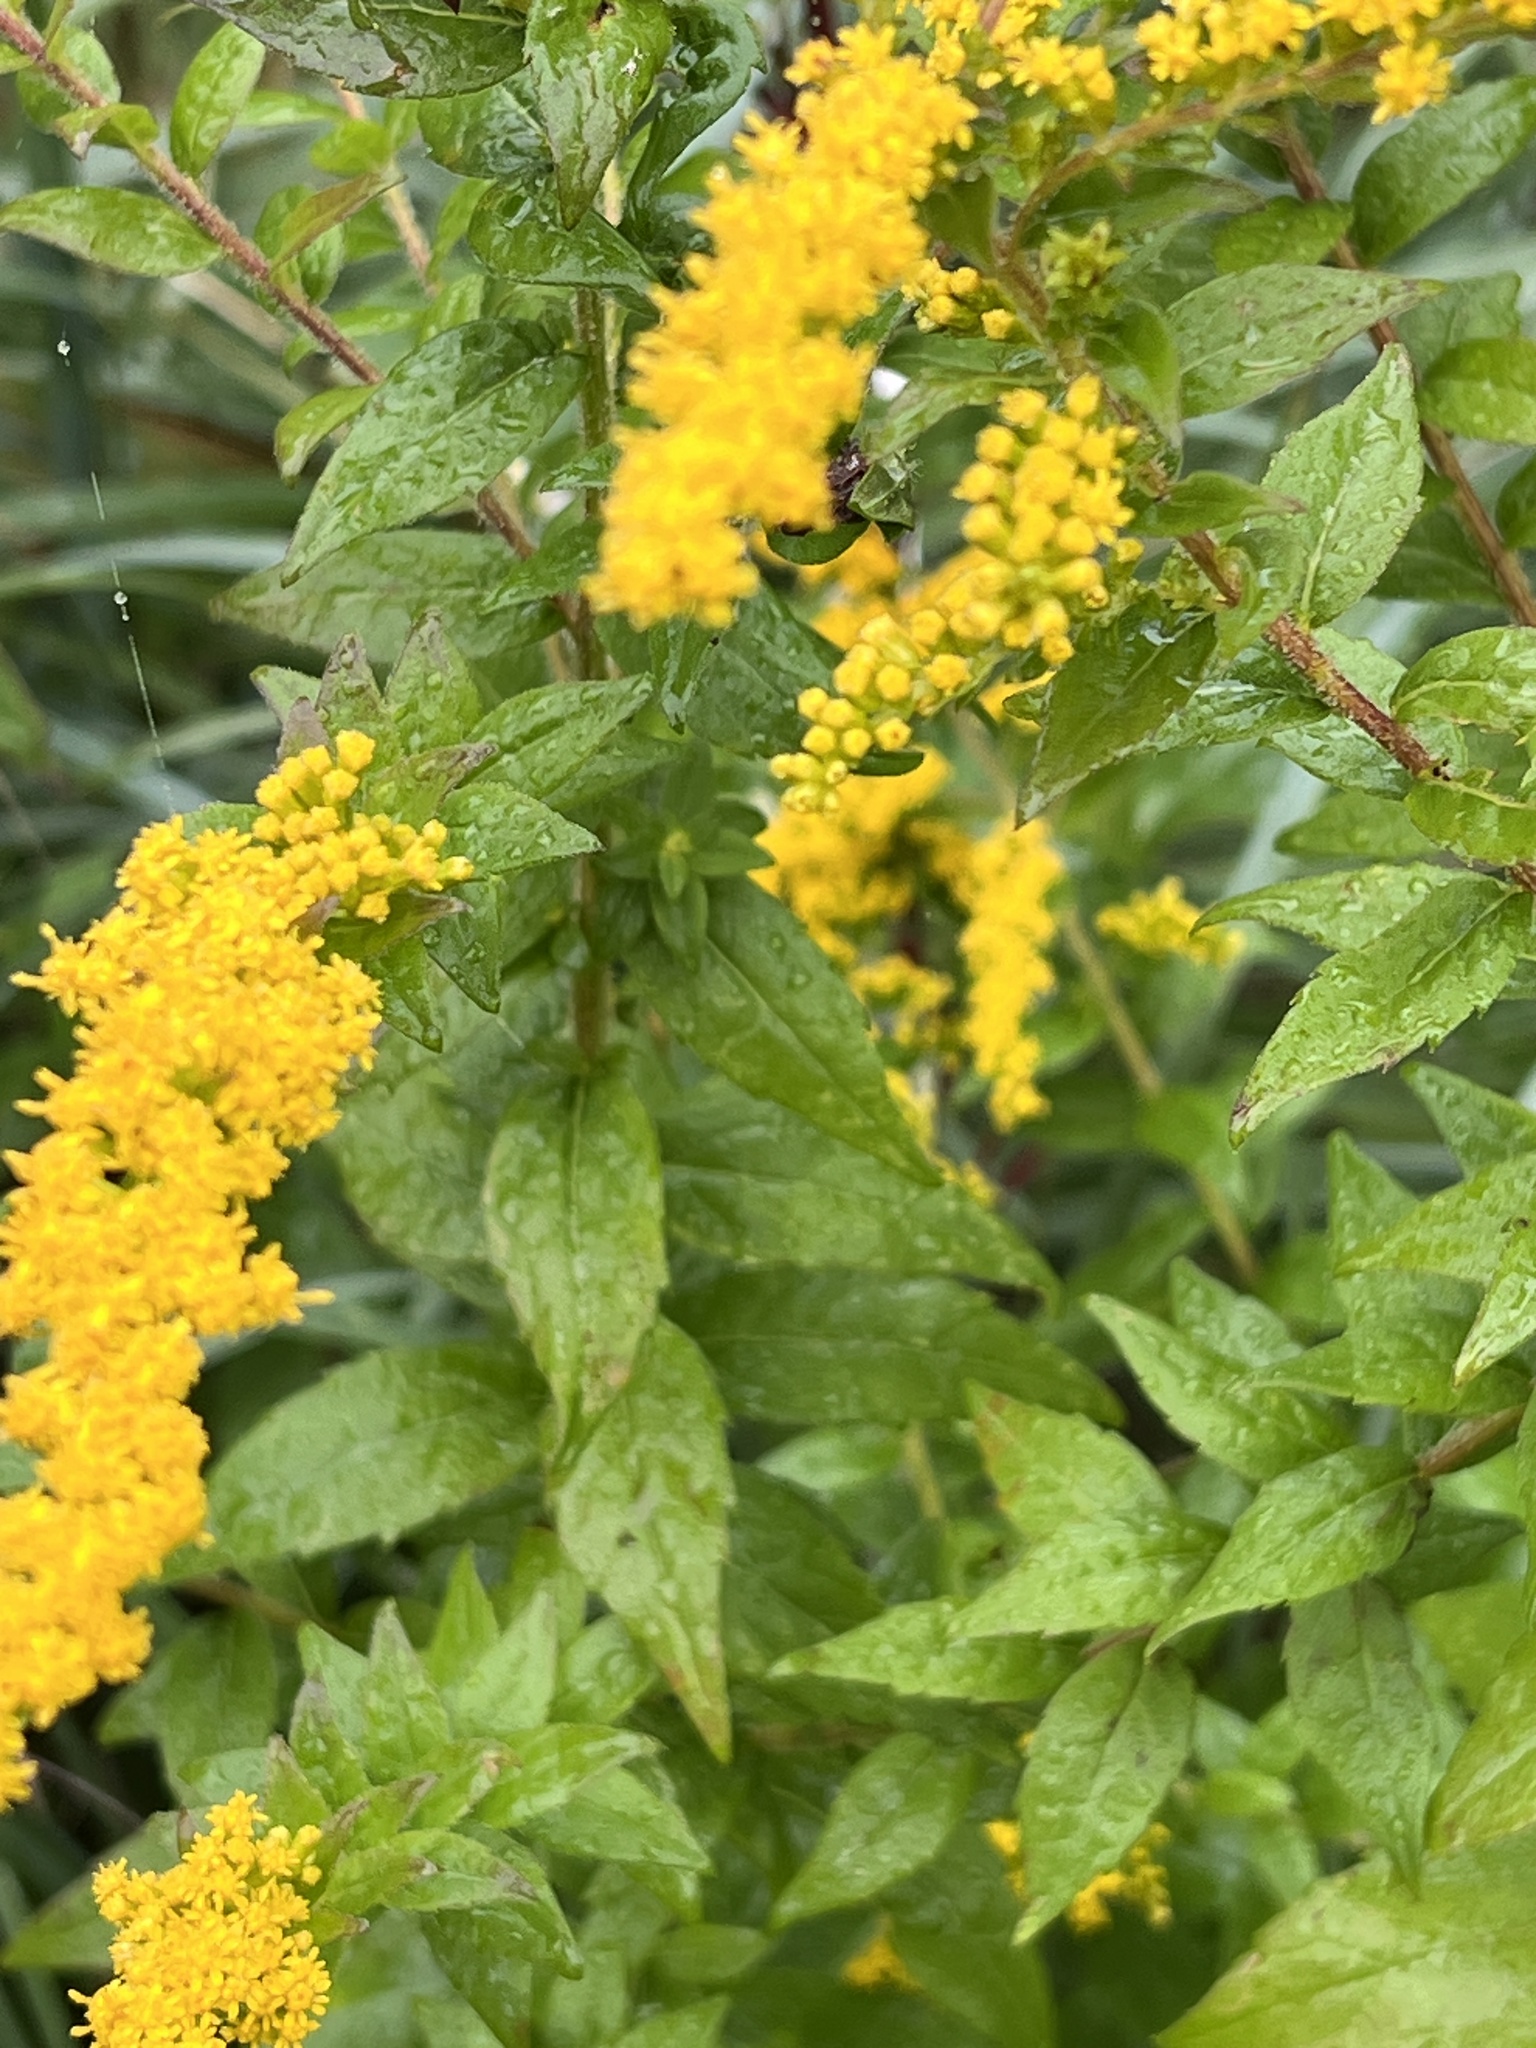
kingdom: Plantae
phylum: Tracheophyta
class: Magnoliopsida
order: Asterales
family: Asteraceae
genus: Solidago
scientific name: Solidago rugosa
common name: Rough-stemmed goldenrod
